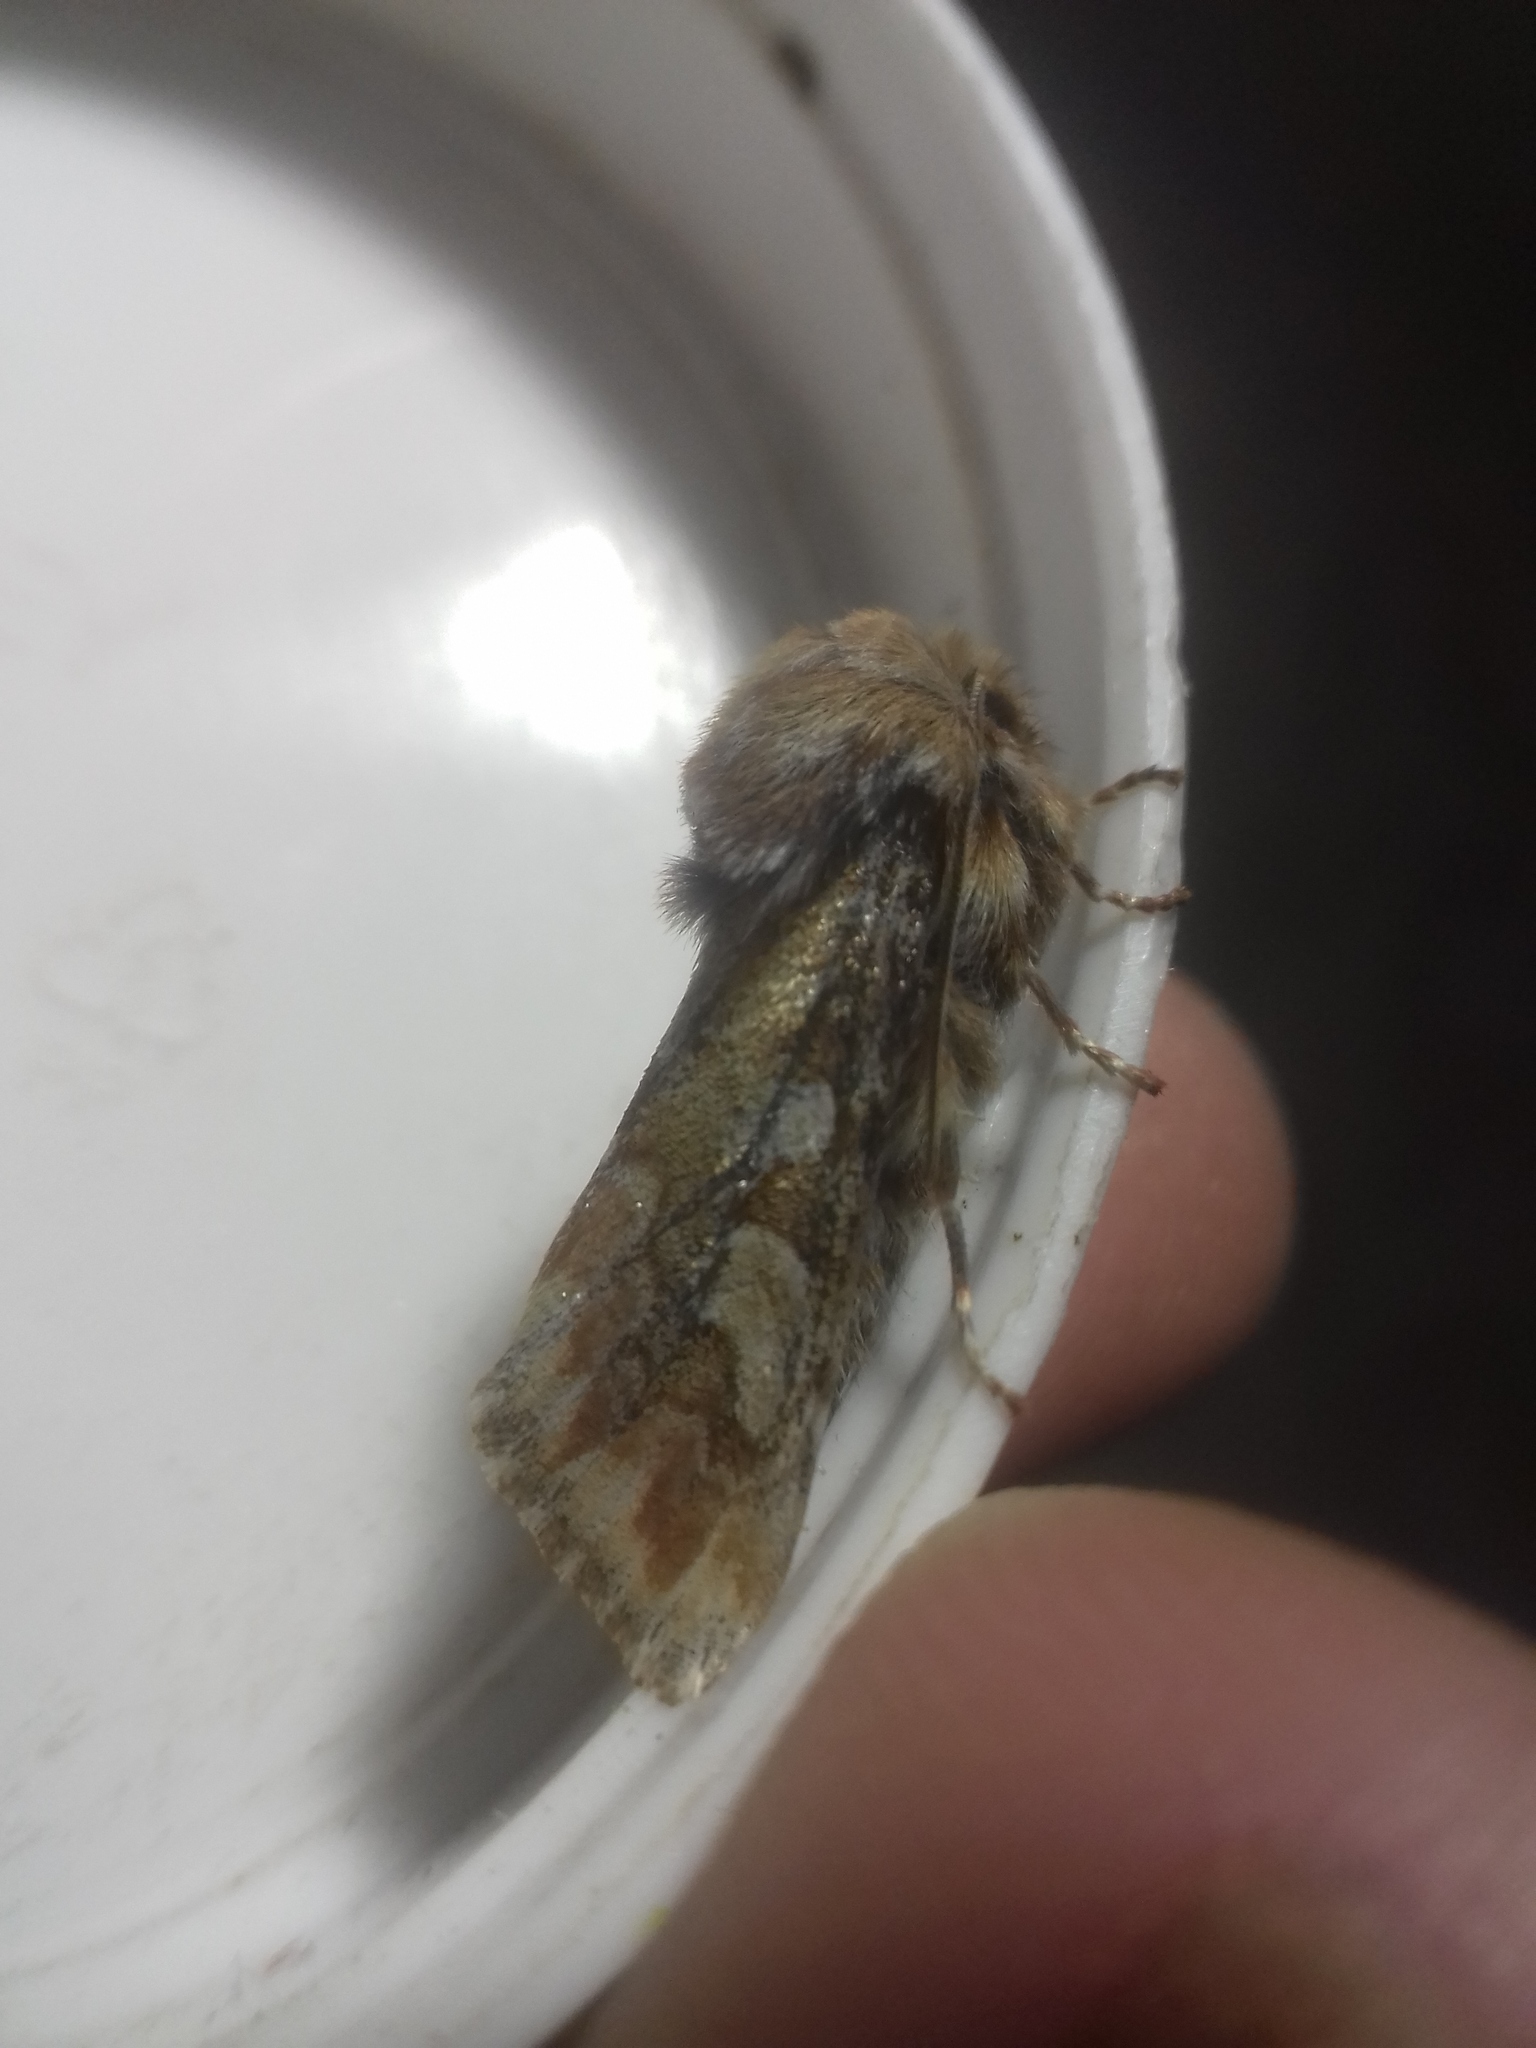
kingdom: Animalia
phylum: Arthropoda
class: Insecta
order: Lepidoptera
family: Noctuidae
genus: Panolis
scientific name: Panolis flammea
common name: Pine beauty
